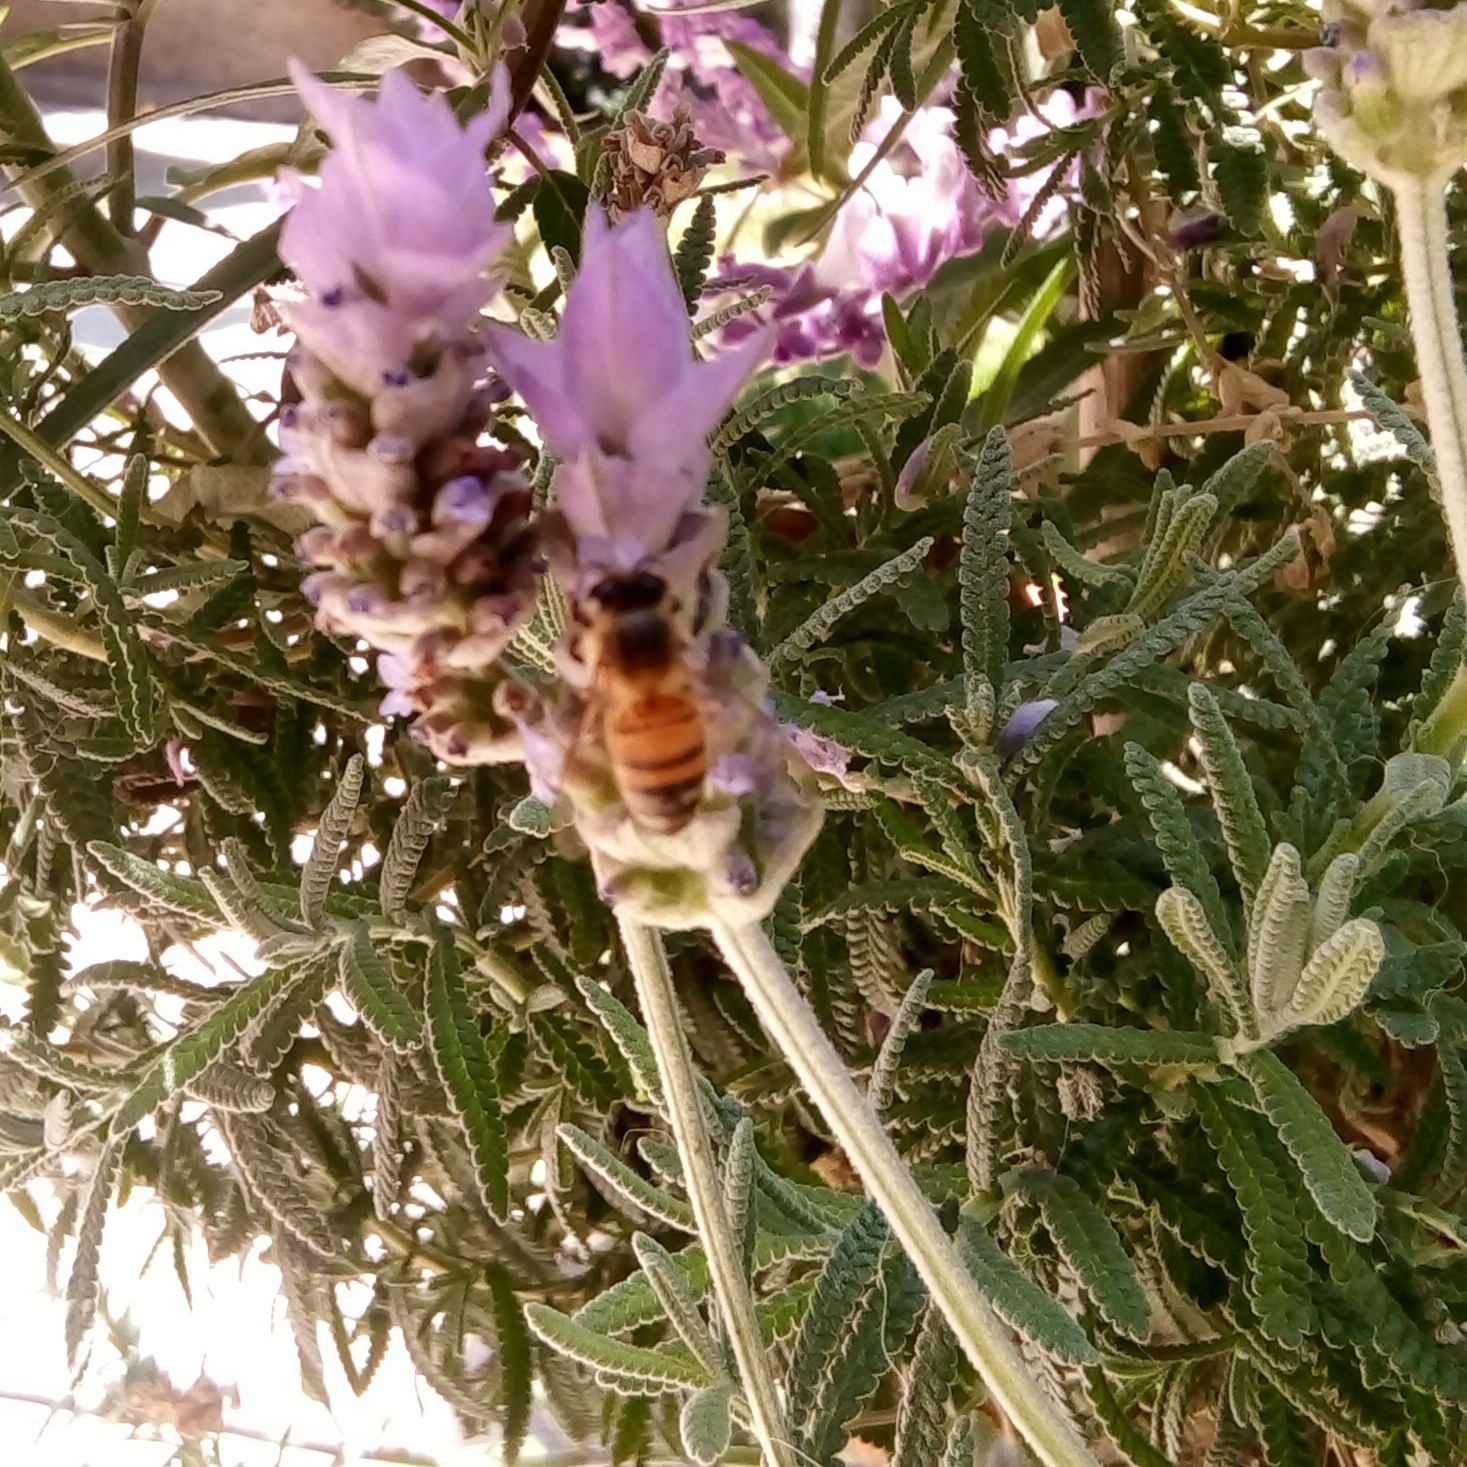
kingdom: Animalia
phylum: Arthropoda
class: Insecta
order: Hymenoptera
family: Apidae
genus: Apis
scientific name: Apis mellifera
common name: Honey bee
